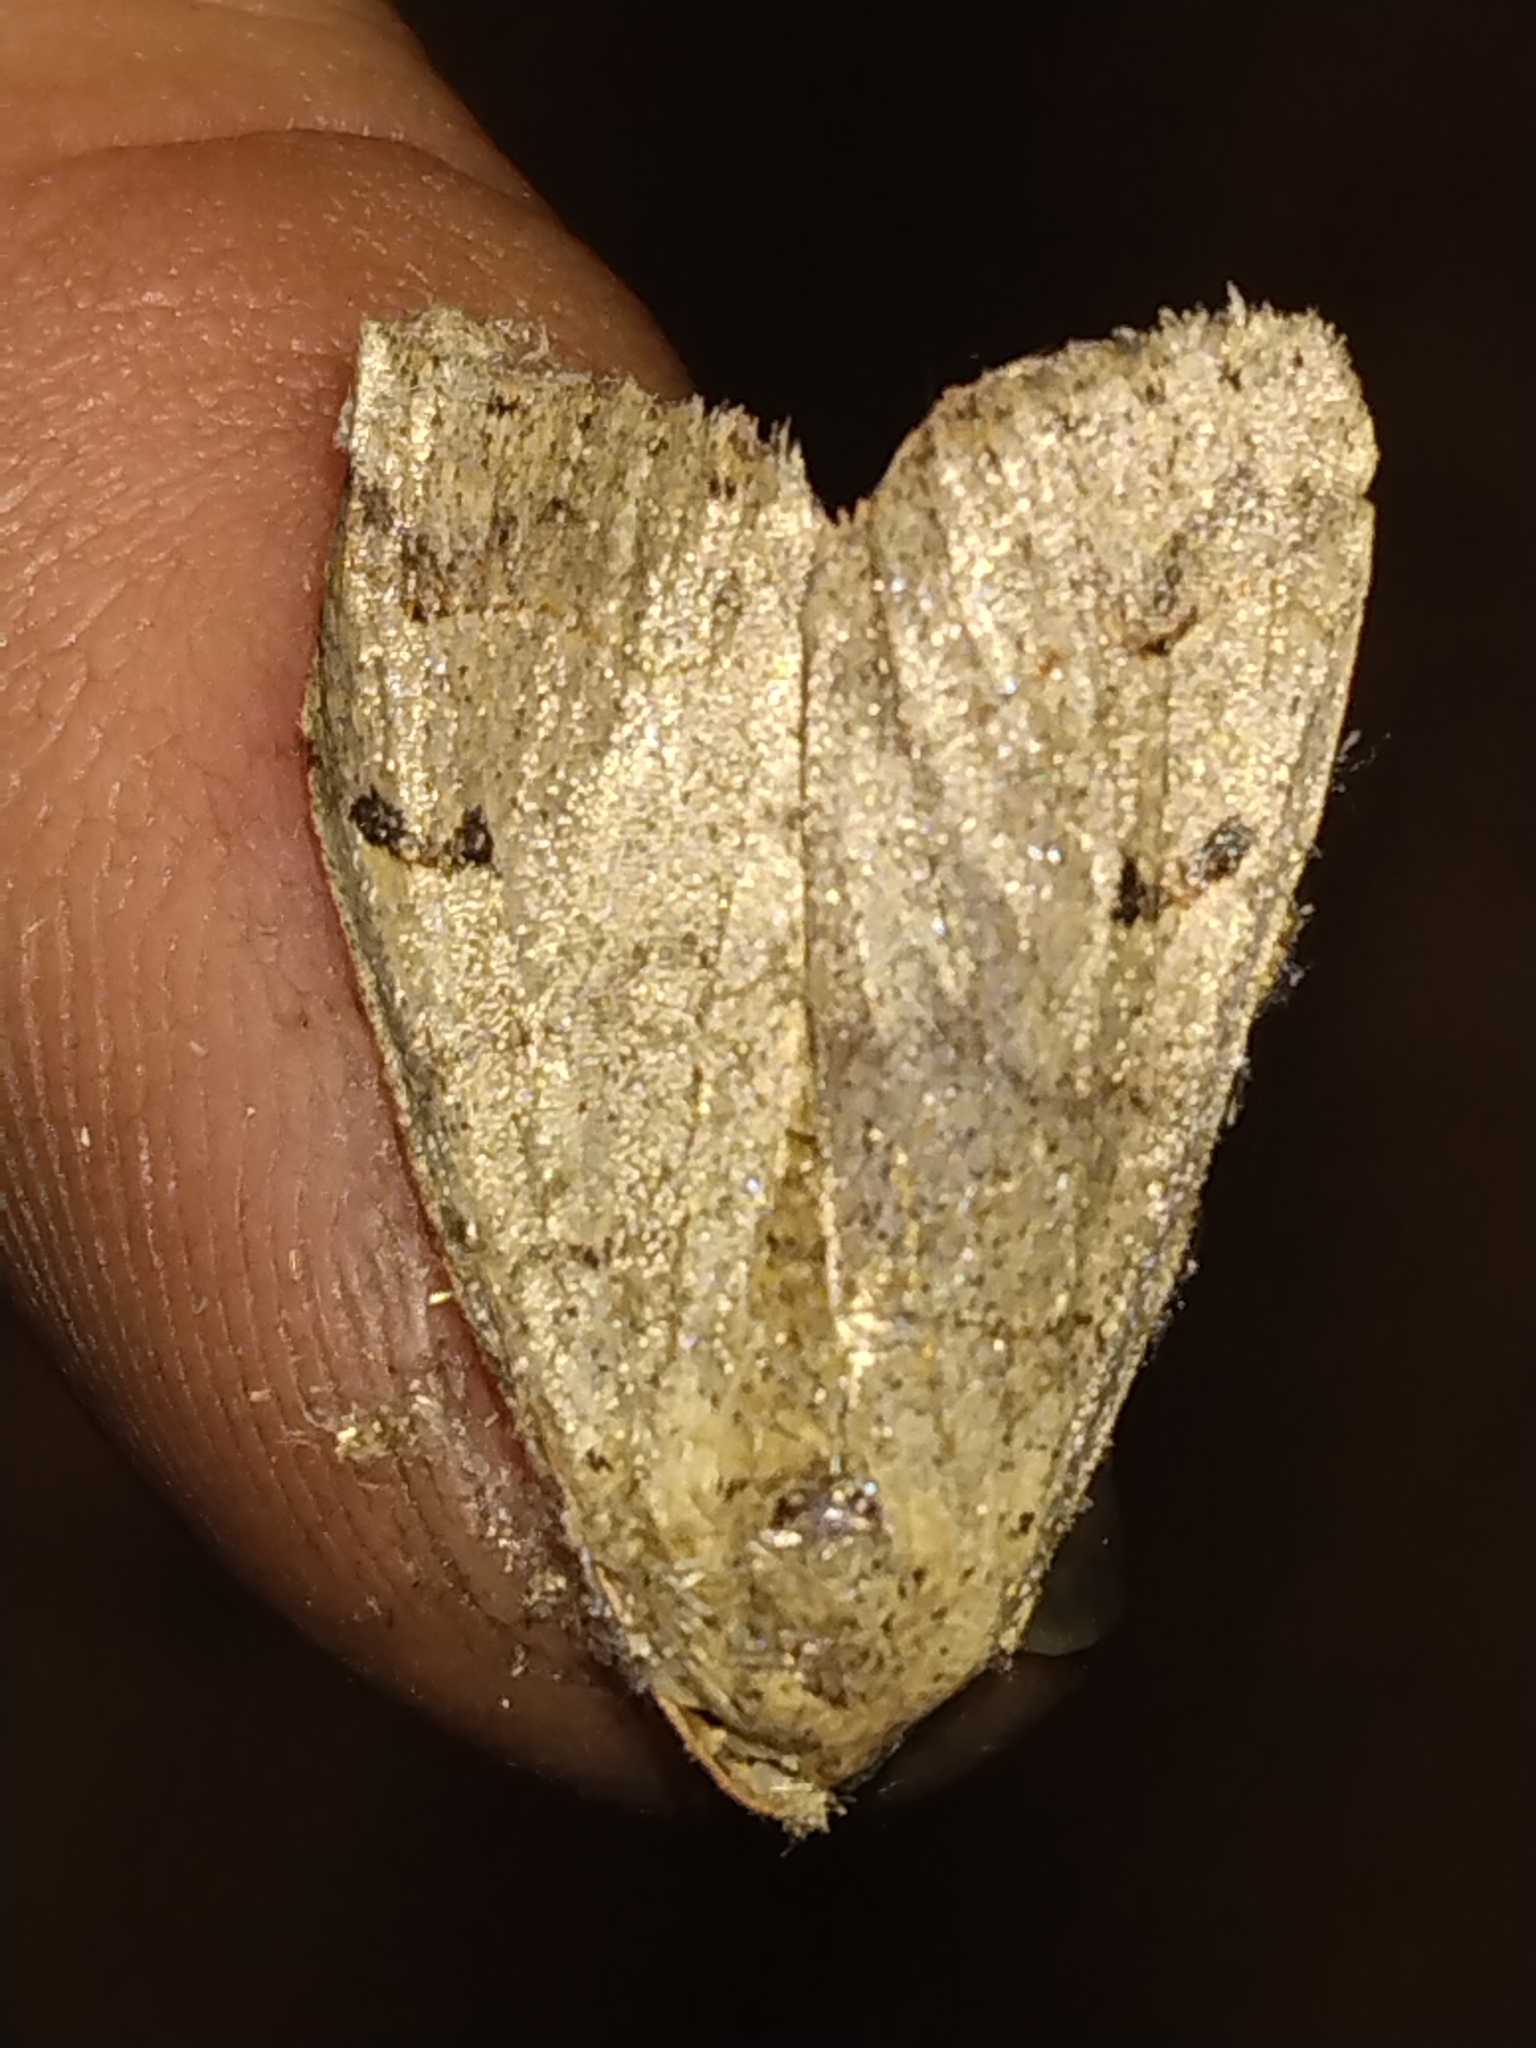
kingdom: Animalia
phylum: Arthropoda
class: Insecta
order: Lepidoptera
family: Erebidae
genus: Phoberia
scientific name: Phoberia atomaris
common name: Common oak moth
